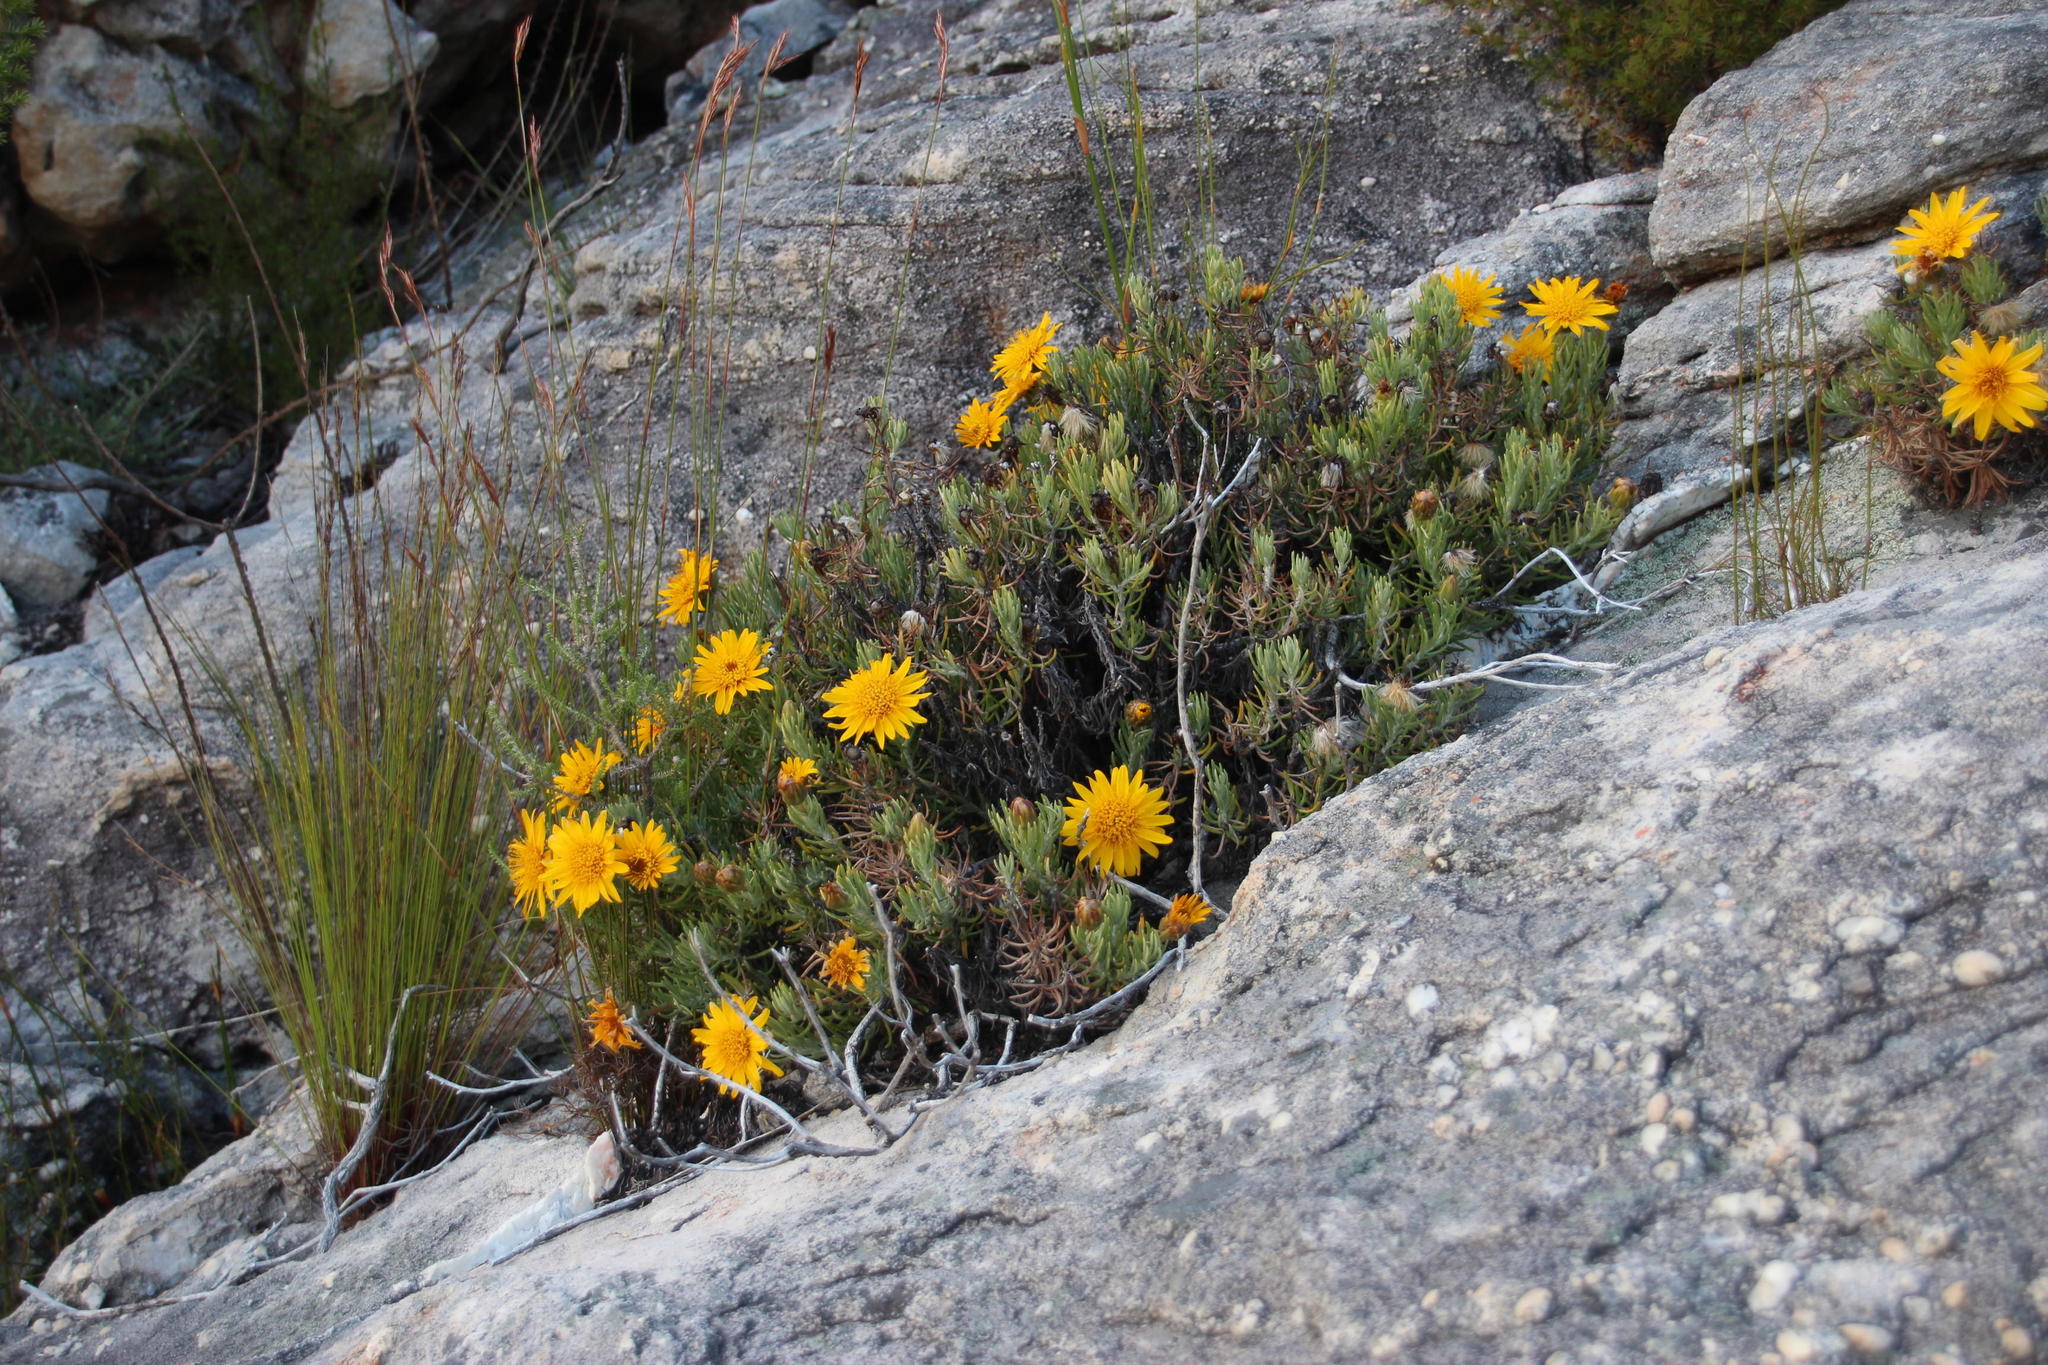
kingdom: Plantae
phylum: Tracheophyta
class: Magnoliopsida
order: Asterales
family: Asteraceae
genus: Heterolepis
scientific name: Heterolepis aliena
